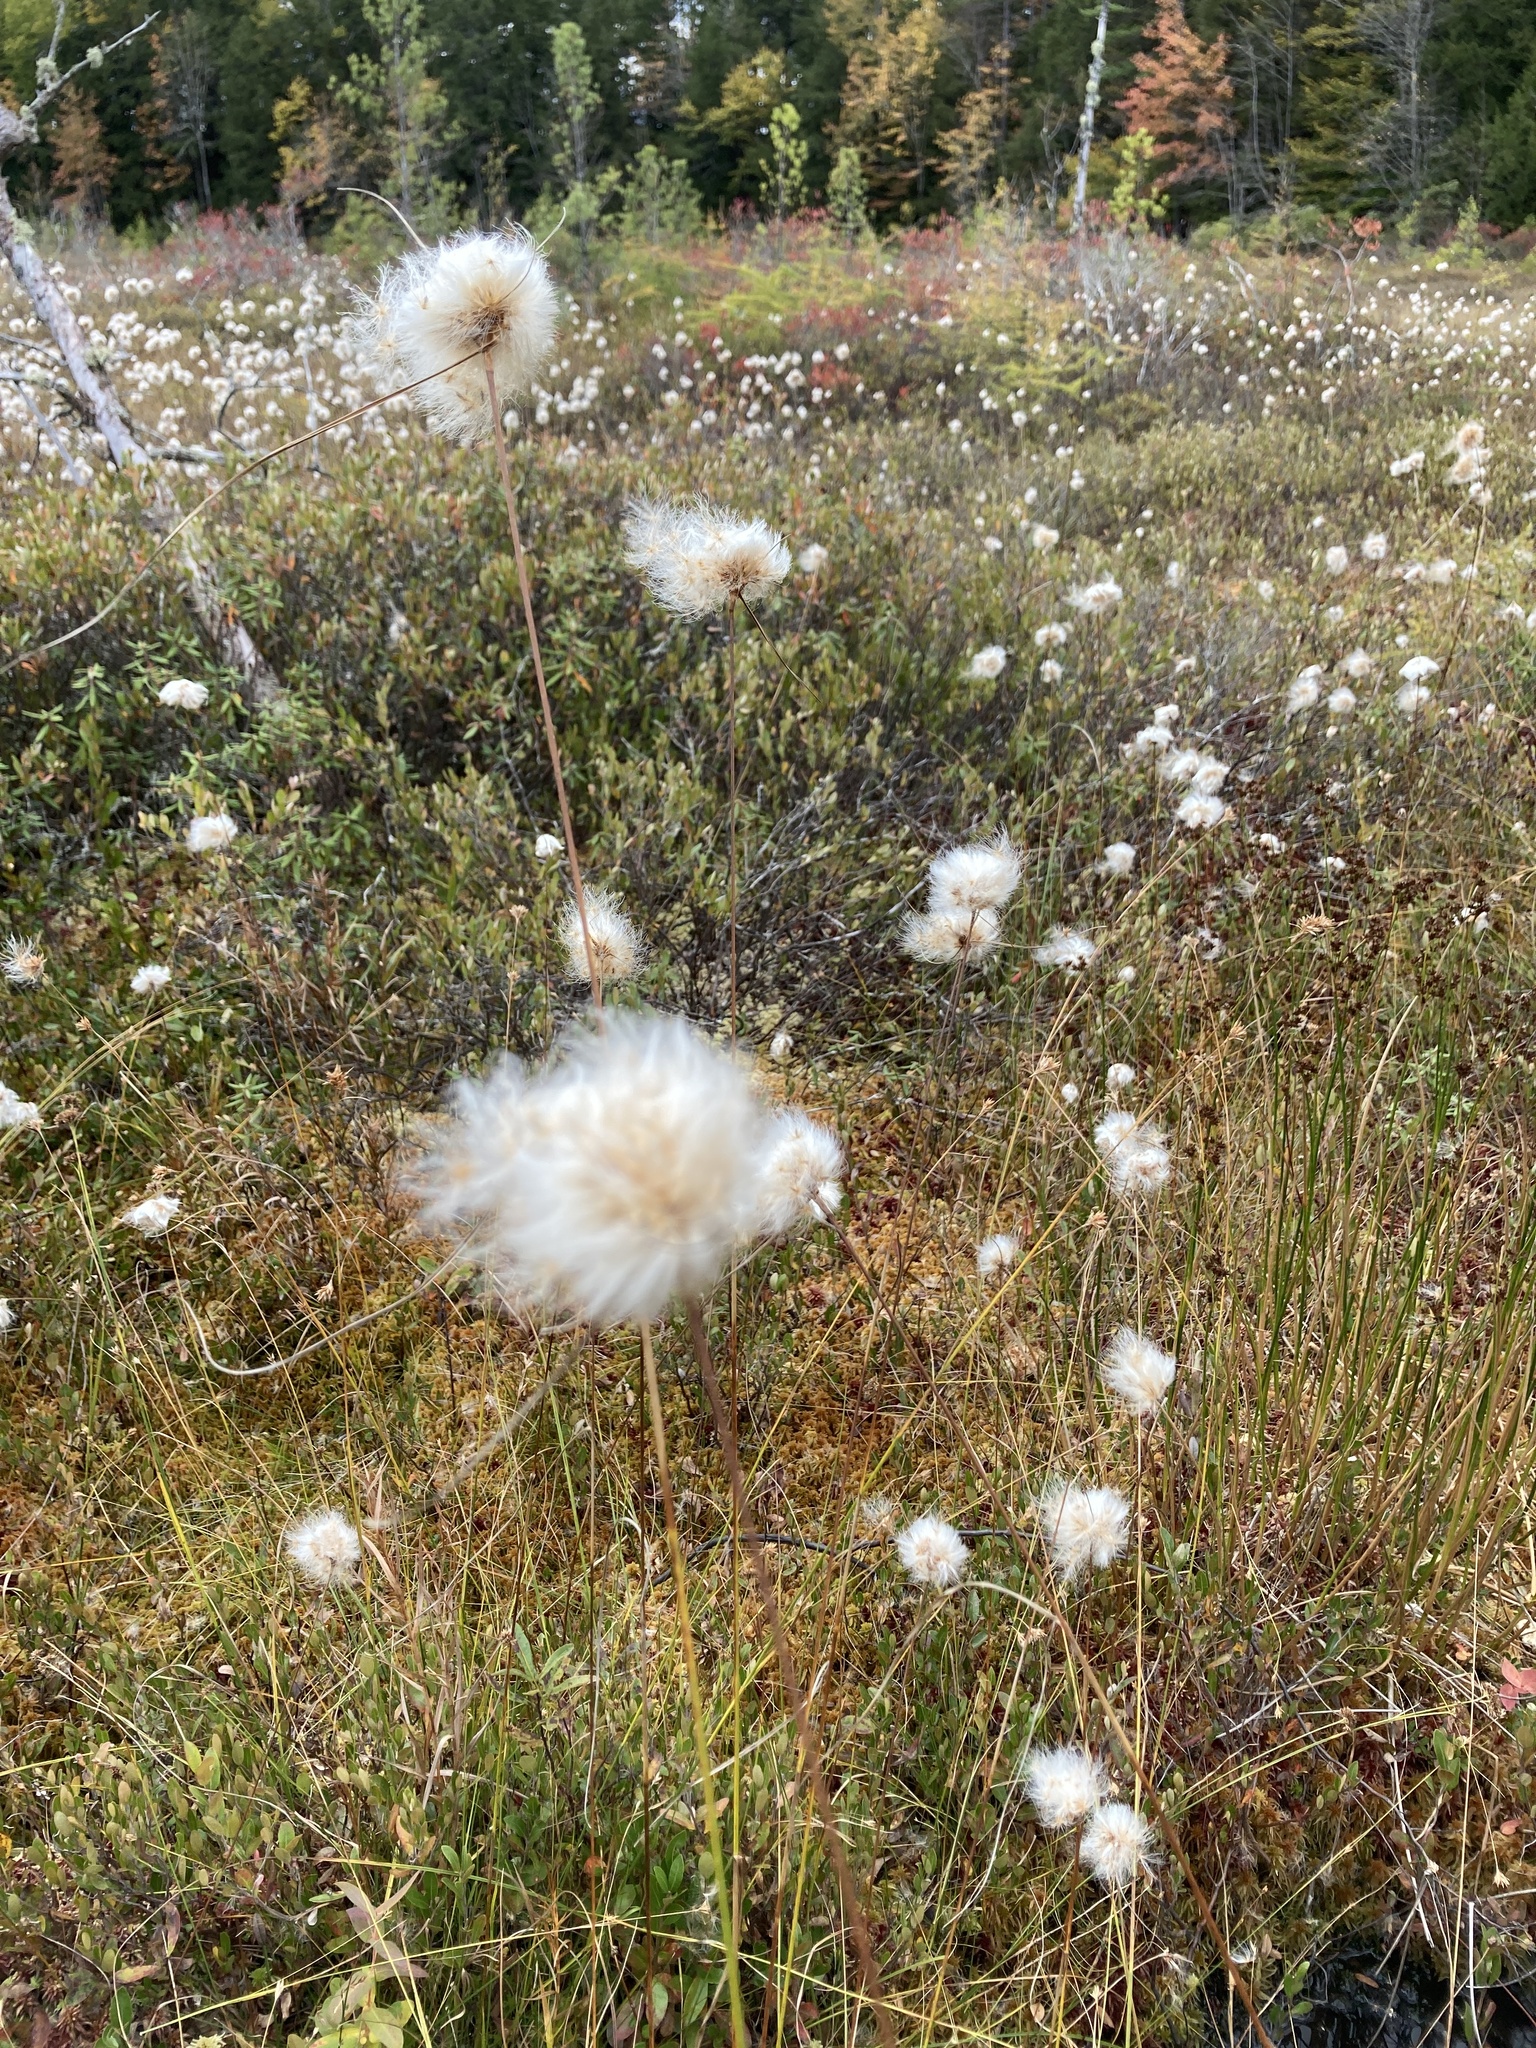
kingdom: Plantae
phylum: Tracheophyta
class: Liliopsida
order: Poales
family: Cyperaceae
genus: Eriophorum
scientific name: Eriophorum virginicum
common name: Tawny cottongrass
